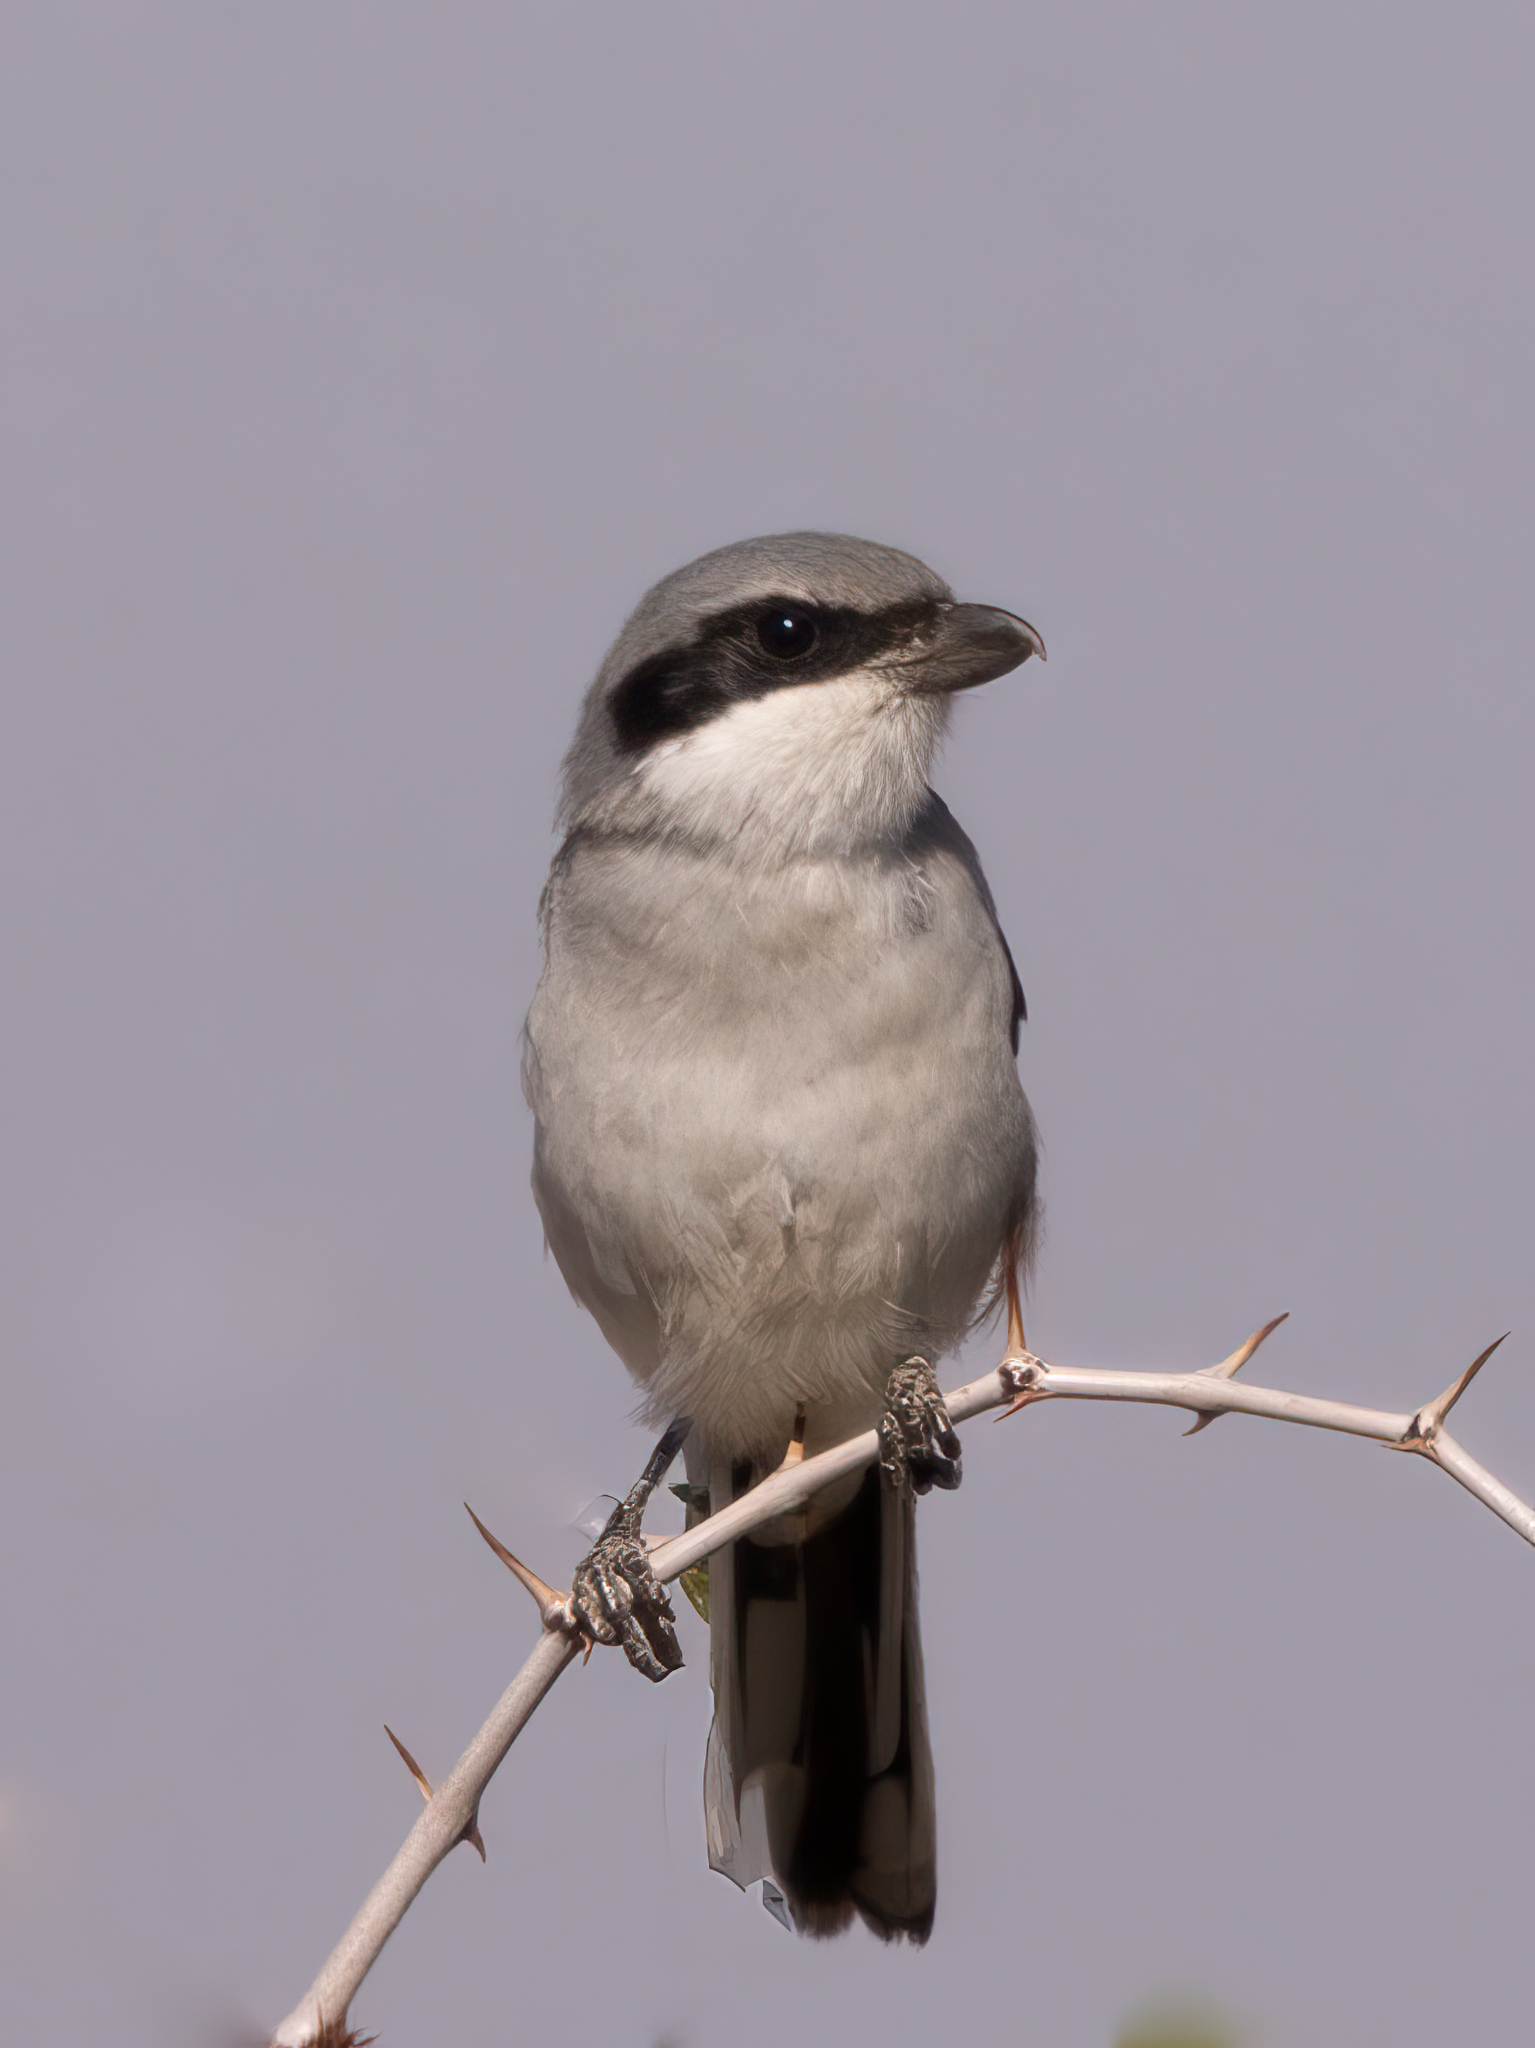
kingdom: Animalia
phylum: Chordata
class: Aves
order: Passeriformes
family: Laniidae
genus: Lanius
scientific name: Lanius excubitor
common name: Great grey shrike
